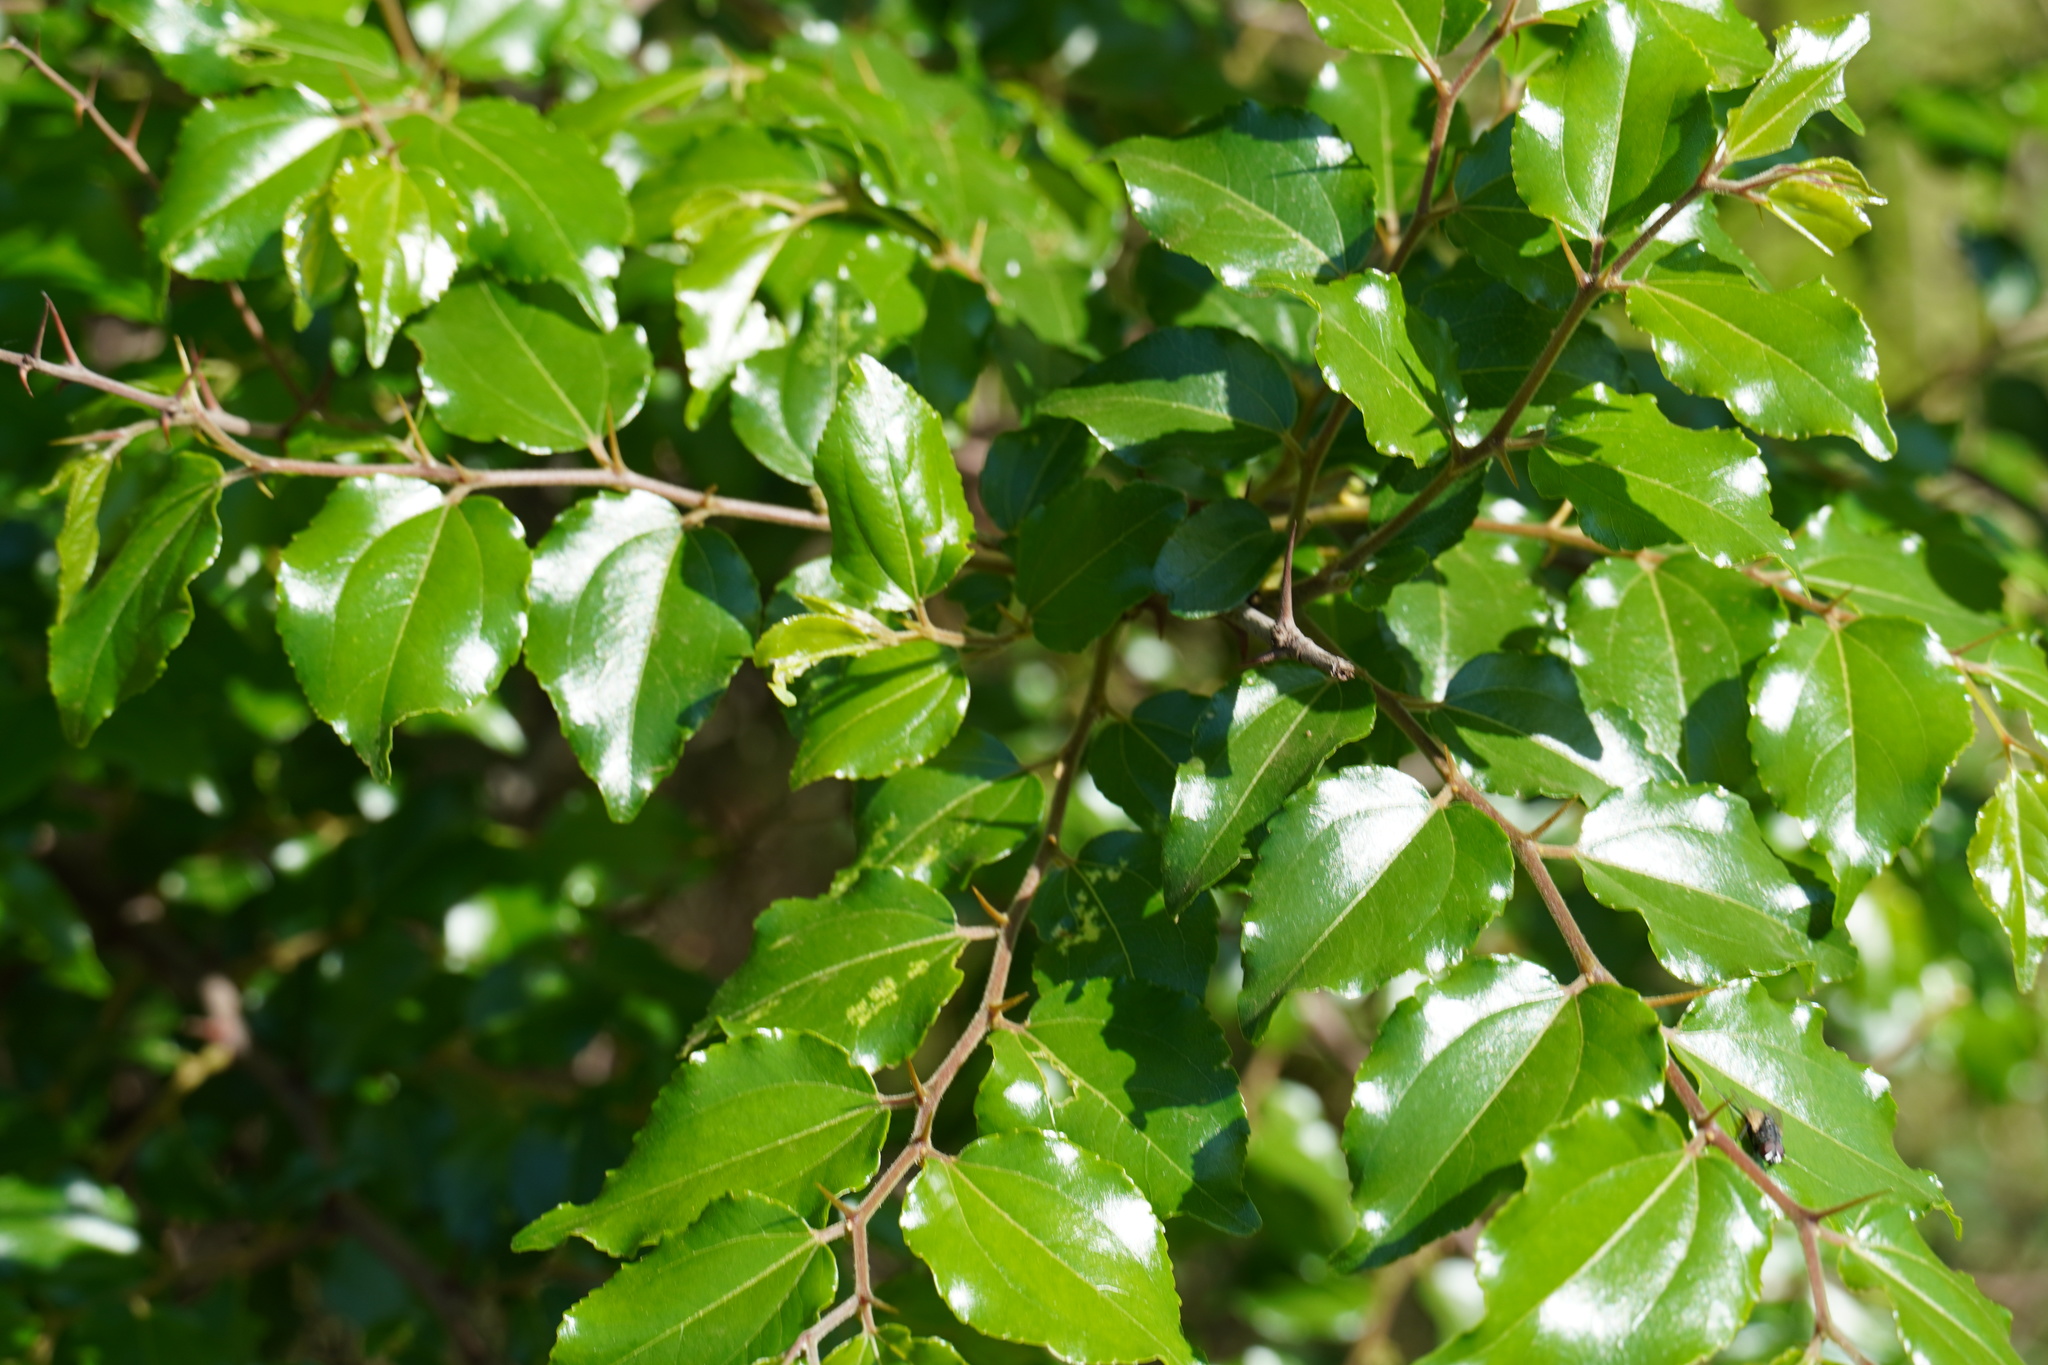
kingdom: Plantae
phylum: Tracheophyta
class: Magnoliopsida
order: Rosales
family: Rhamnaceae
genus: Ziziphus
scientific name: Ziziphus mucronata
